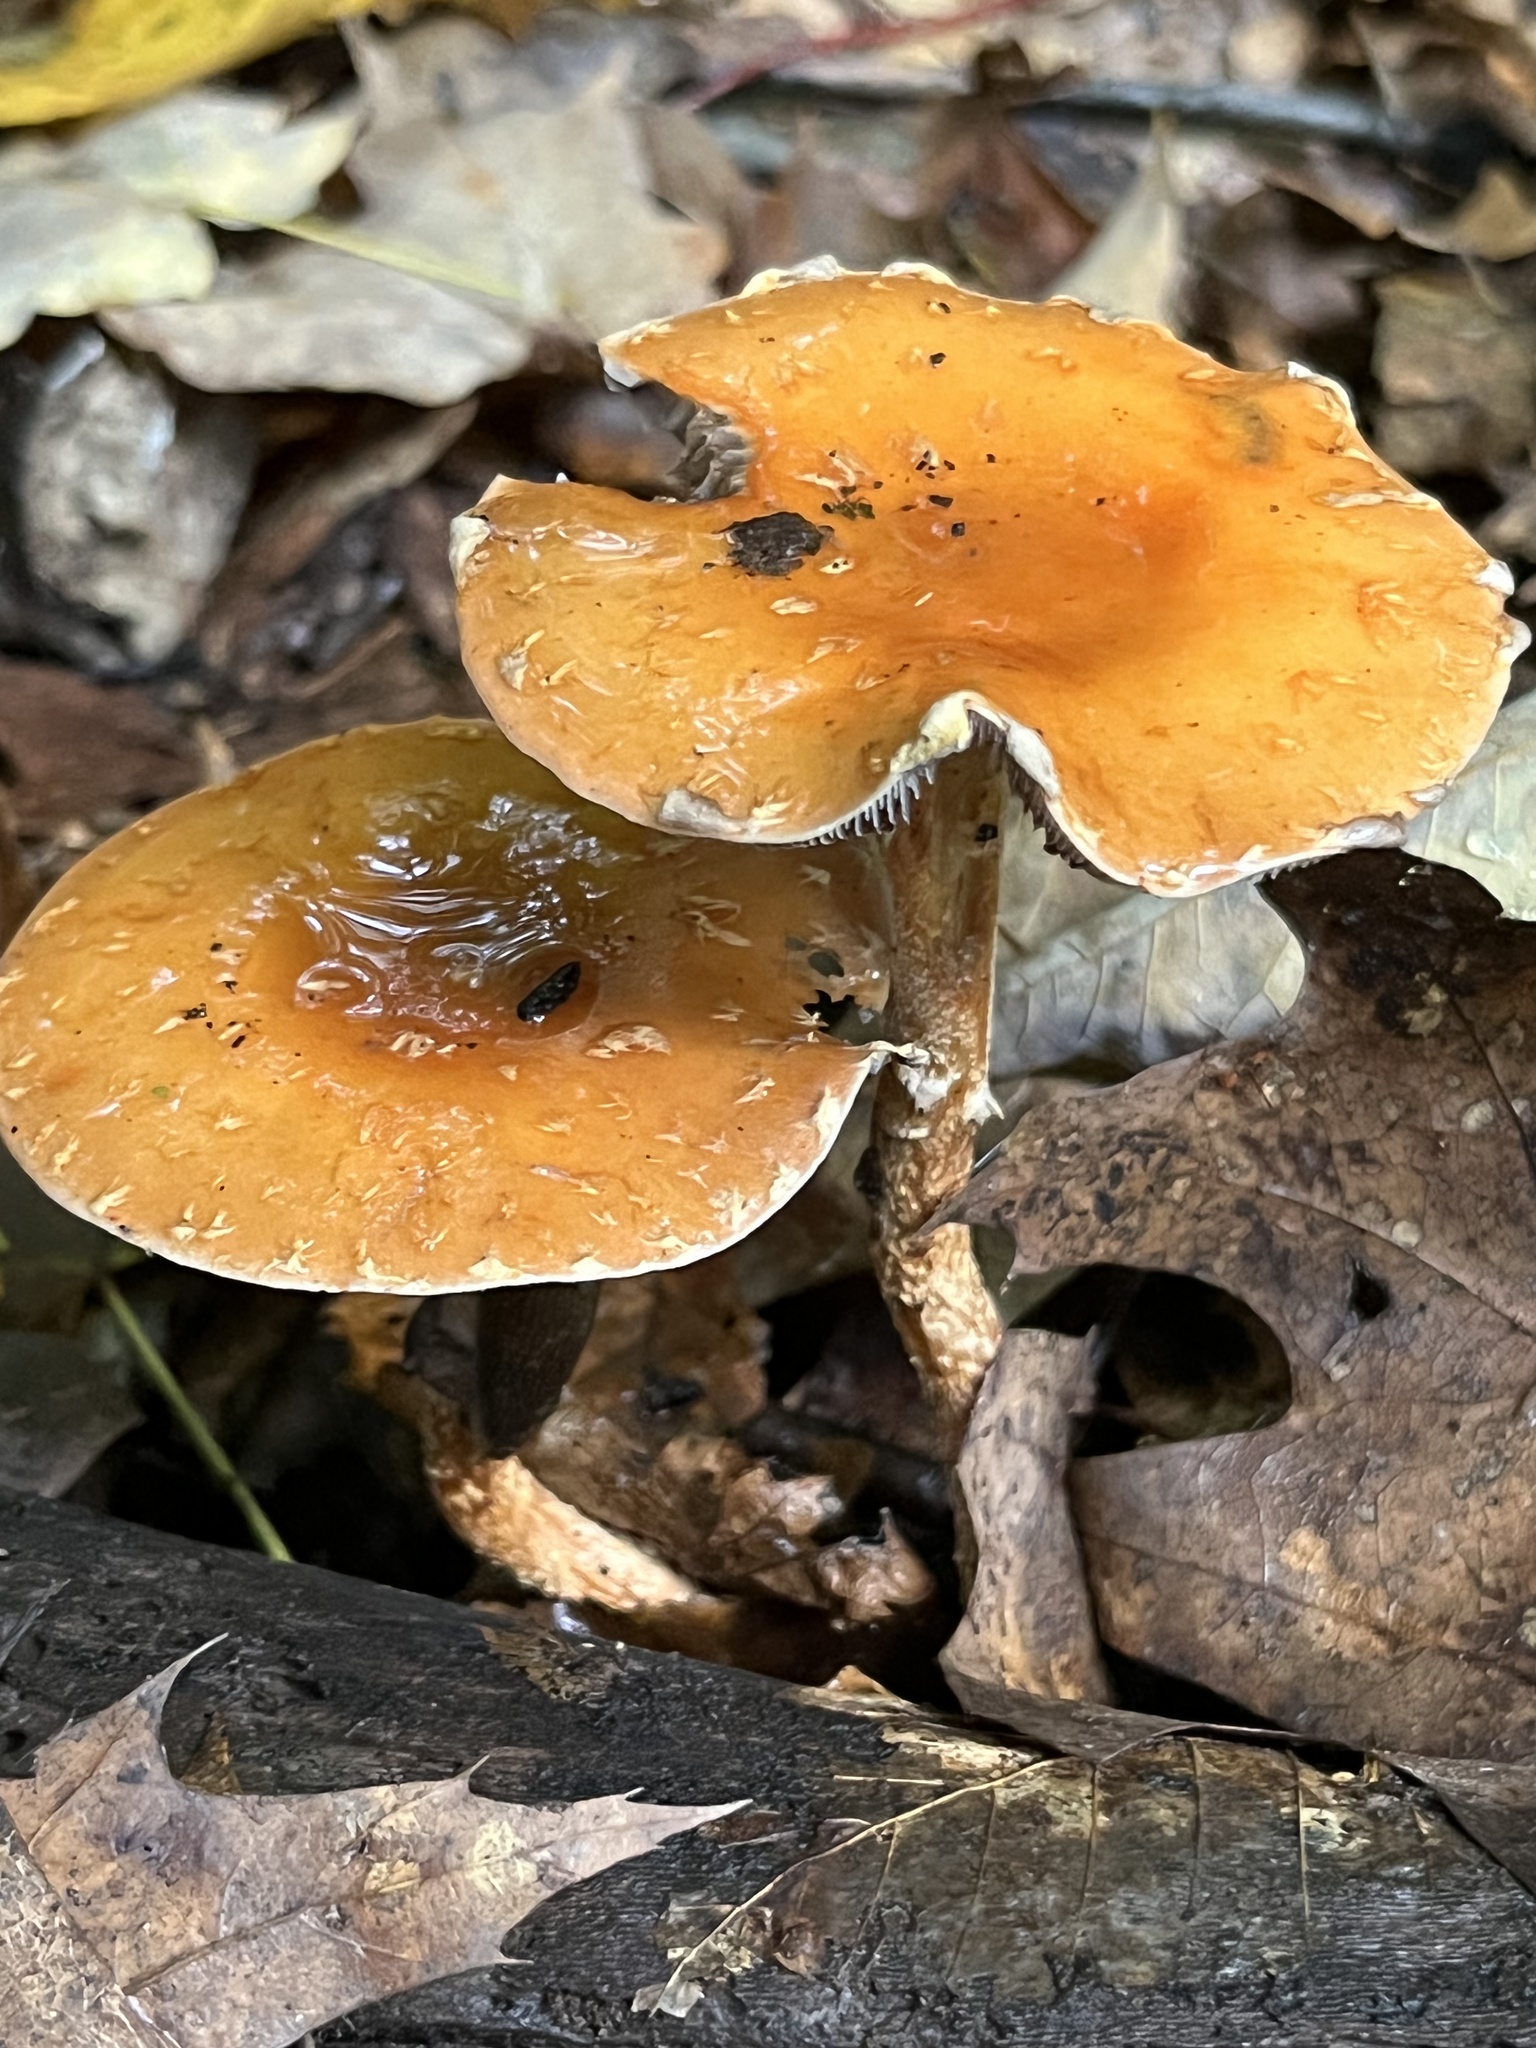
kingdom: Fungi
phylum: Basidiomycota
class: Agaricomycetes
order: Agaricales
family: Strophariaceae
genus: Leratiomyces
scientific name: Leratiomyces squamosus
